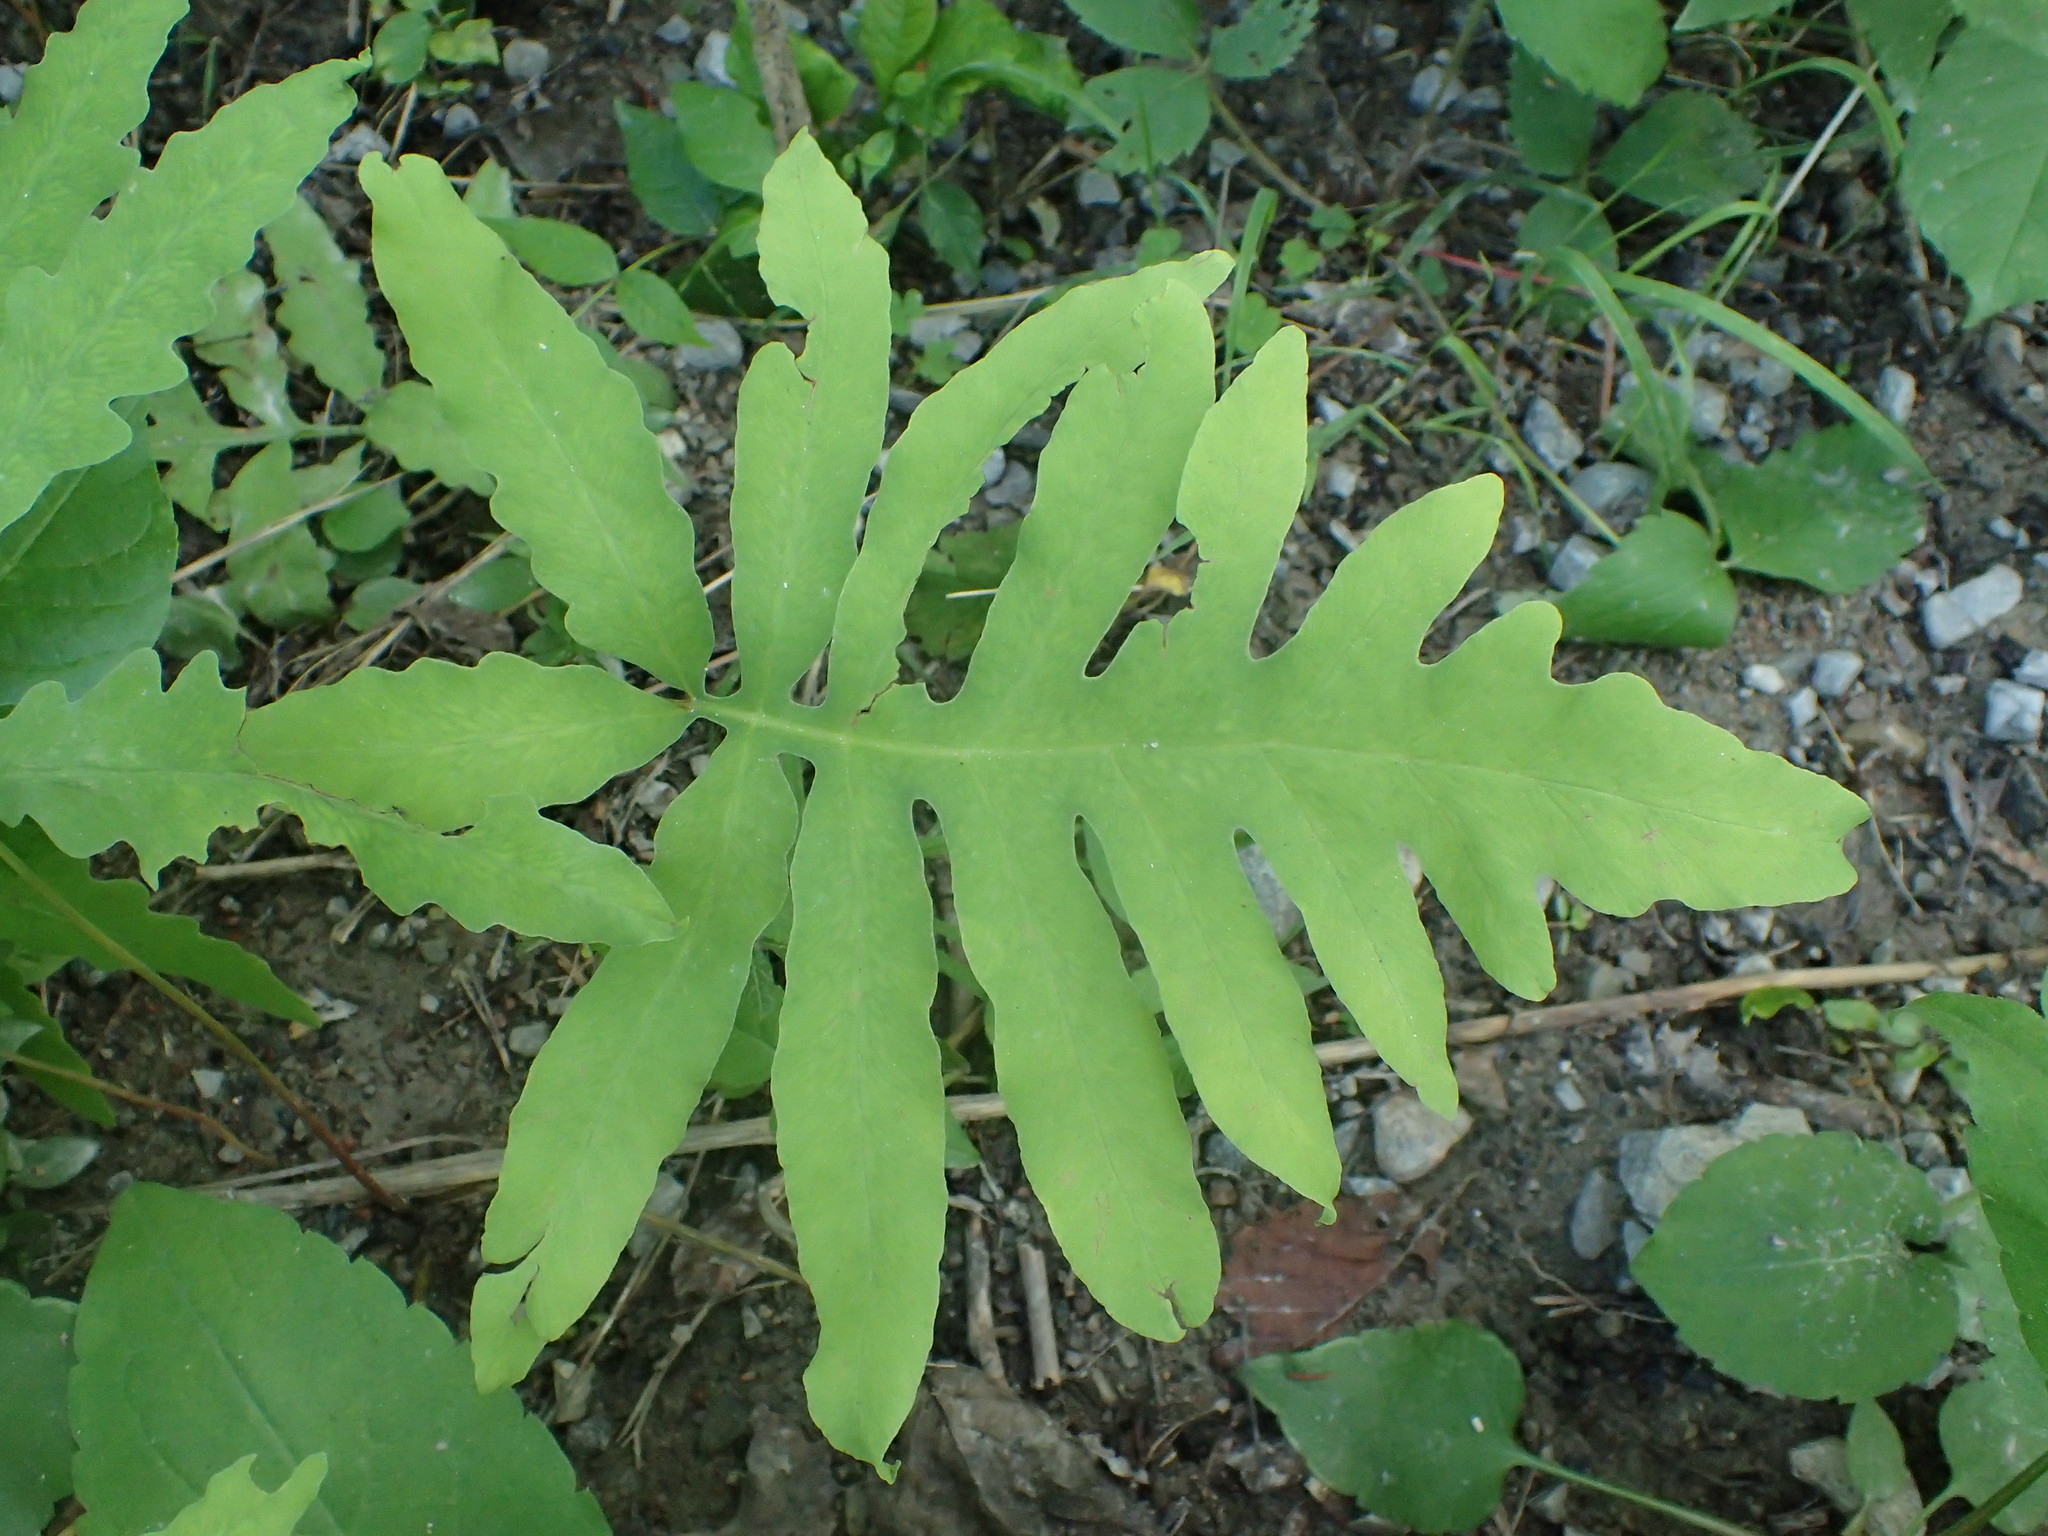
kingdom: Plantae
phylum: Tracheophyta
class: Polypodiopsida
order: Polypodiales
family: Onocleaceae
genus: Onoclea
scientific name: Onoclea sensibilis
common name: Sensitive fern
